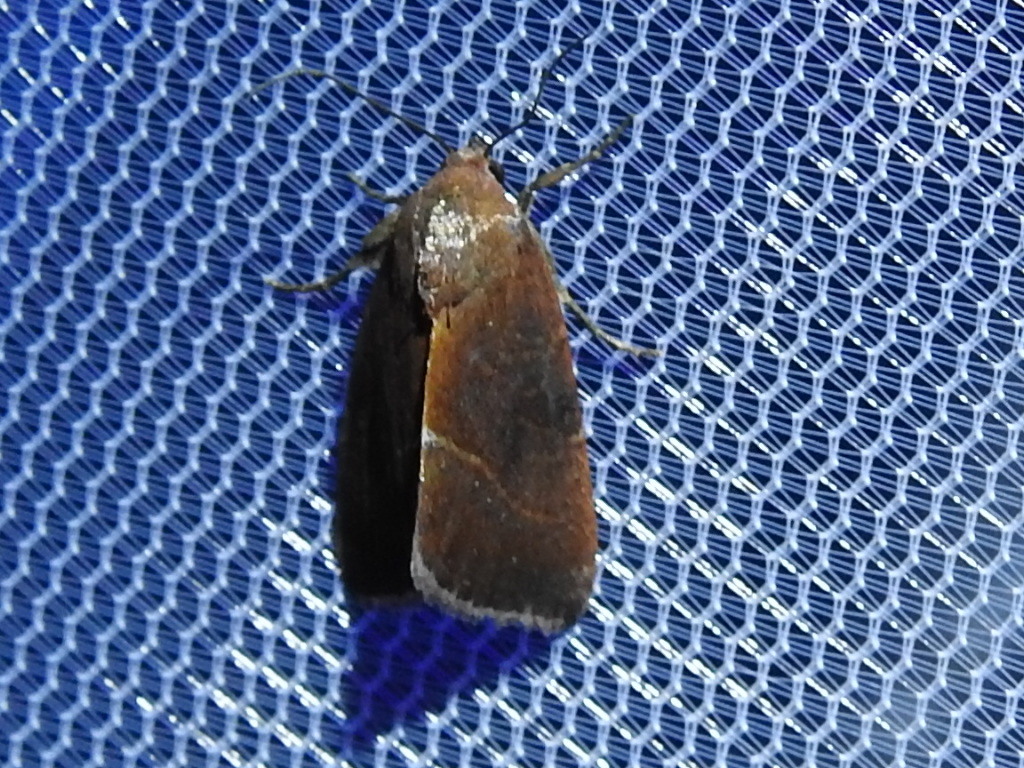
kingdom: Animalia
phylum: Arthropoda
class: Insecta
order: Lepidoptera
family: Noctuidae
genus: Galgula
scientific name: Galgula partita
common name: Wedgeling
